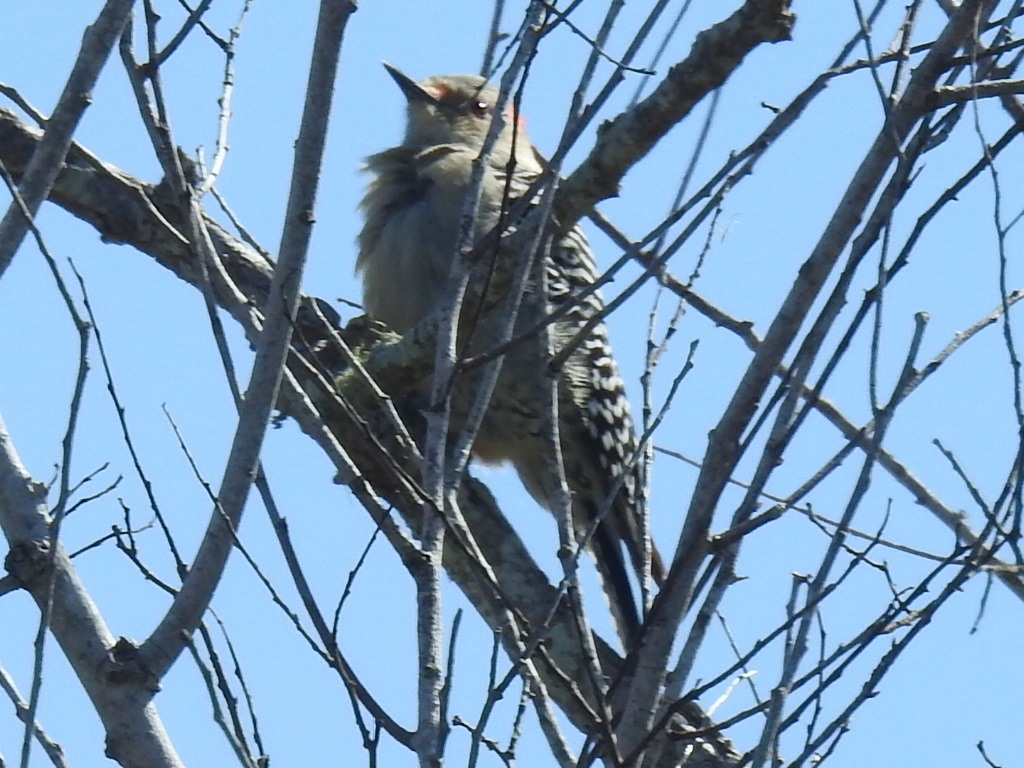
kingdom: Animalia
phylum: Chordata
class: Aves
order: Piciformes
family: Picidae
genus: Melanerpes
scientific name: Melanerpes carolinus
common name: Red-bellied woodpecker
